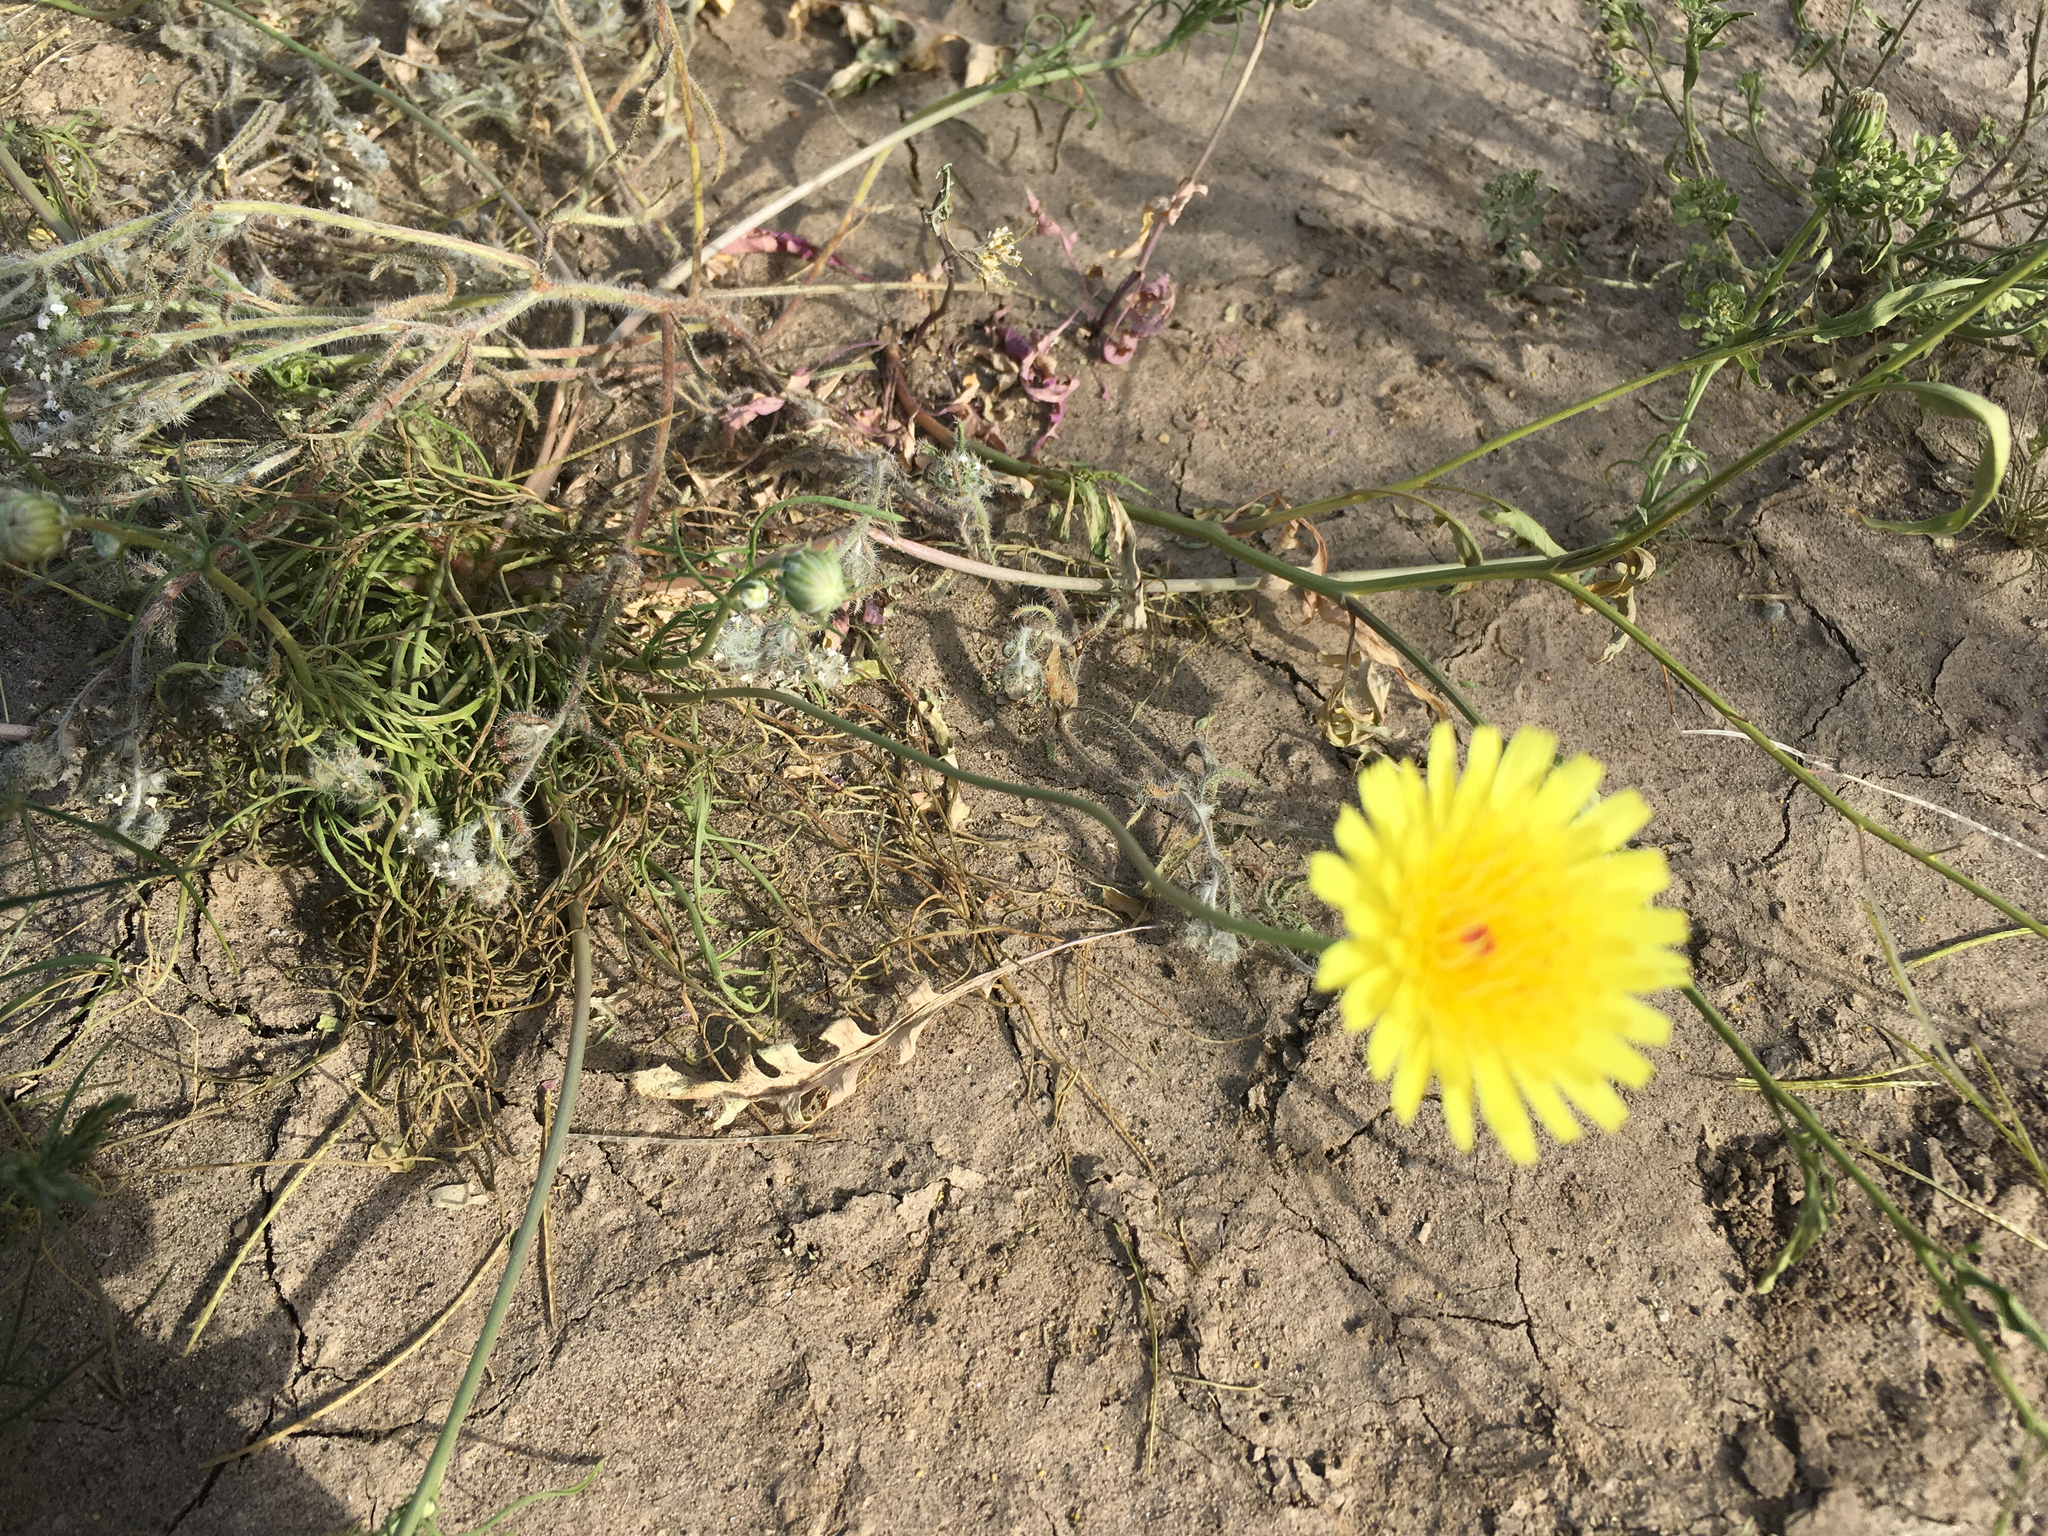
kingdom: Plantae
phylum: Tracheophyta
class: Magnoliopsida
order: Asterales
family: Asteraceae
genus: Malacothrix
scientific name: Malacothrix glabrata
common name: Smooth desert-dandelion
